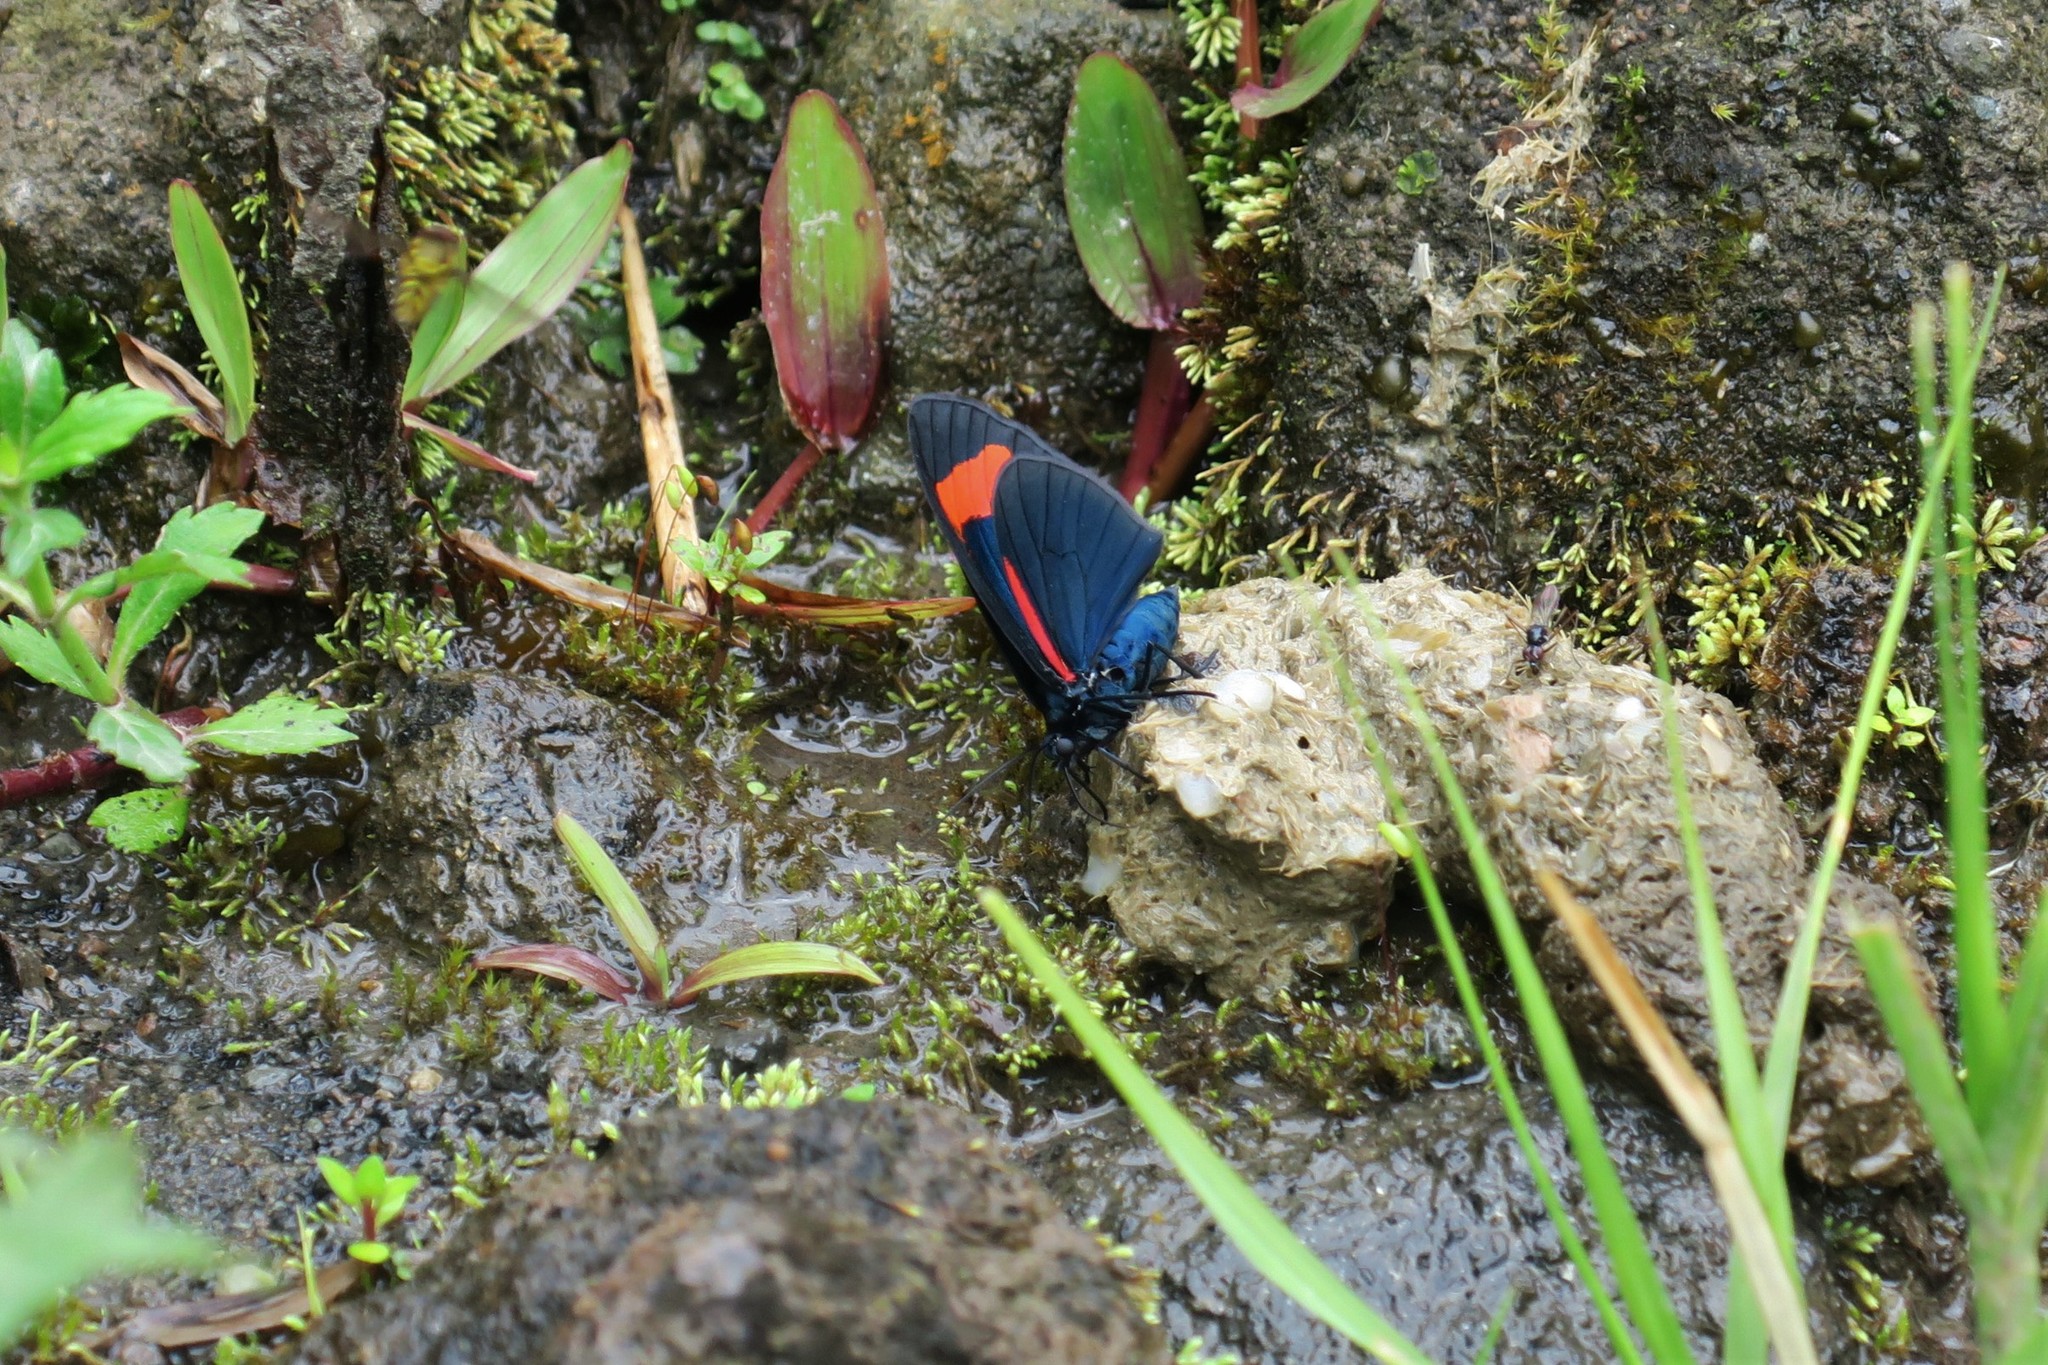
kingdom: Animalia
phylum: Arthropoda
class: Insecta
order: Lepidoptera
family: Geometridae
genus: Siosta
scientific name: Siosta bifasciata
